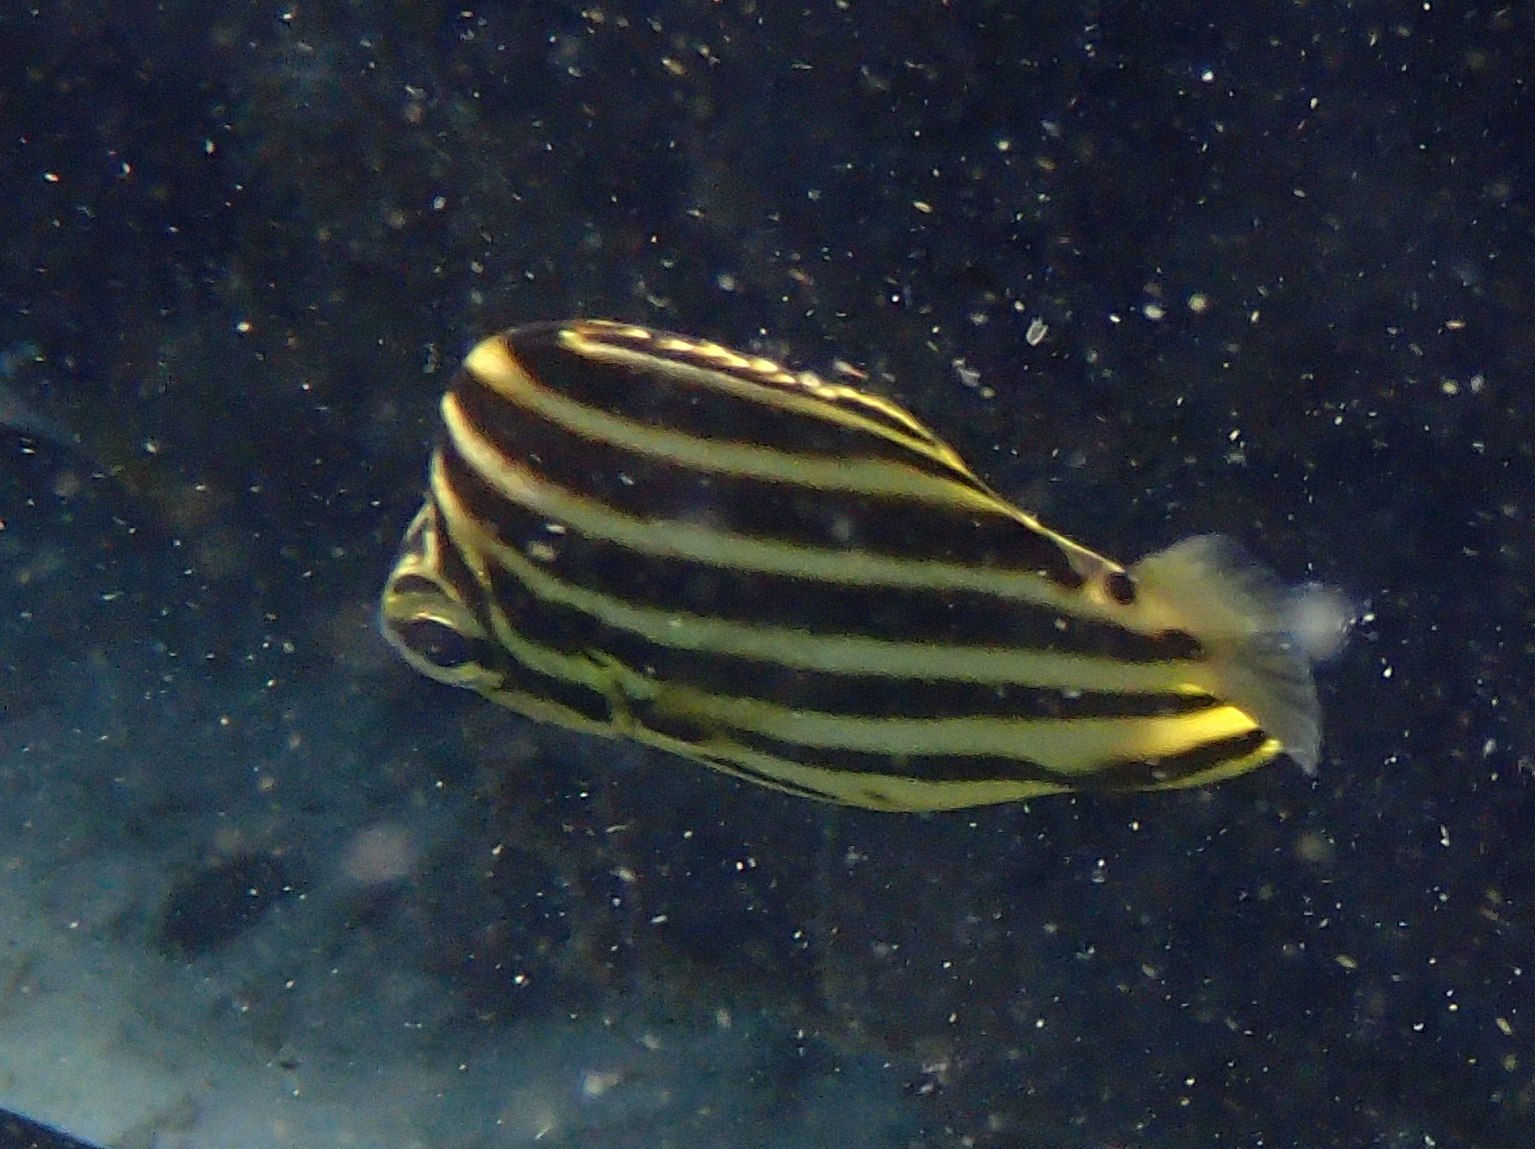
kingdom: Animalia
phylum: Chordata
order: Perciformes
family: Kyphosidae
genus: Microcanthus
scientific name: Microcanthus joyceae
